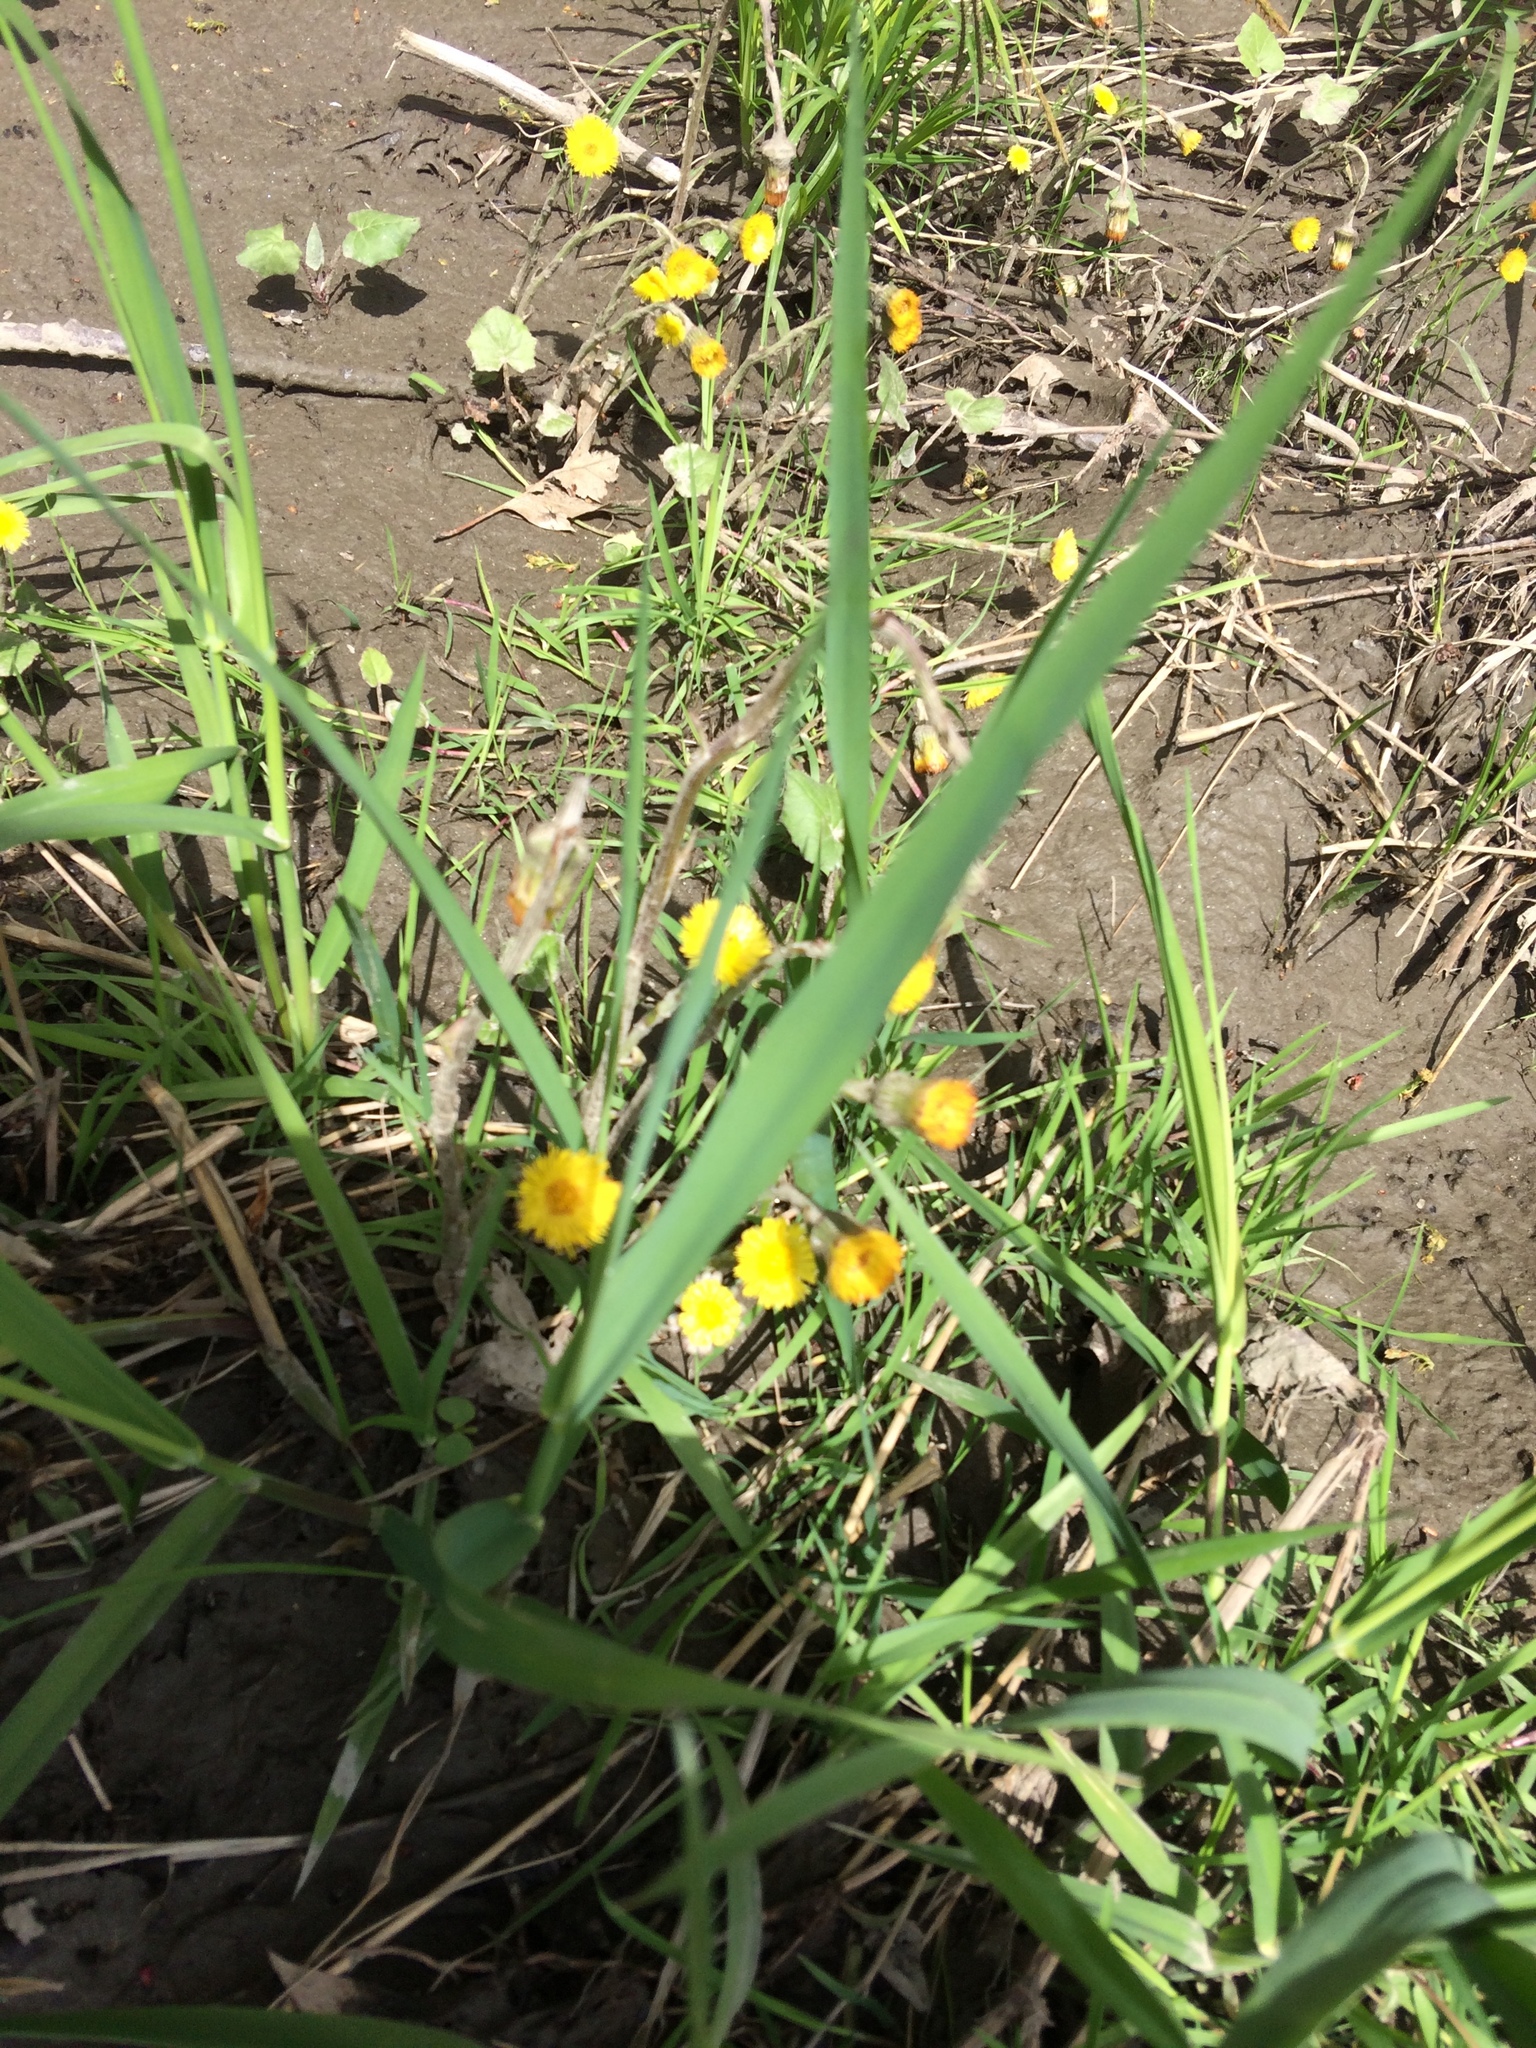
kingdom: Plantae
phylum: Tracheophyta
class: Magnoliopsida
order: Asterales
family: Asteraceae
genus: Tussilago
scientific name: Tussilago farfara
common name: Coltsfoot
